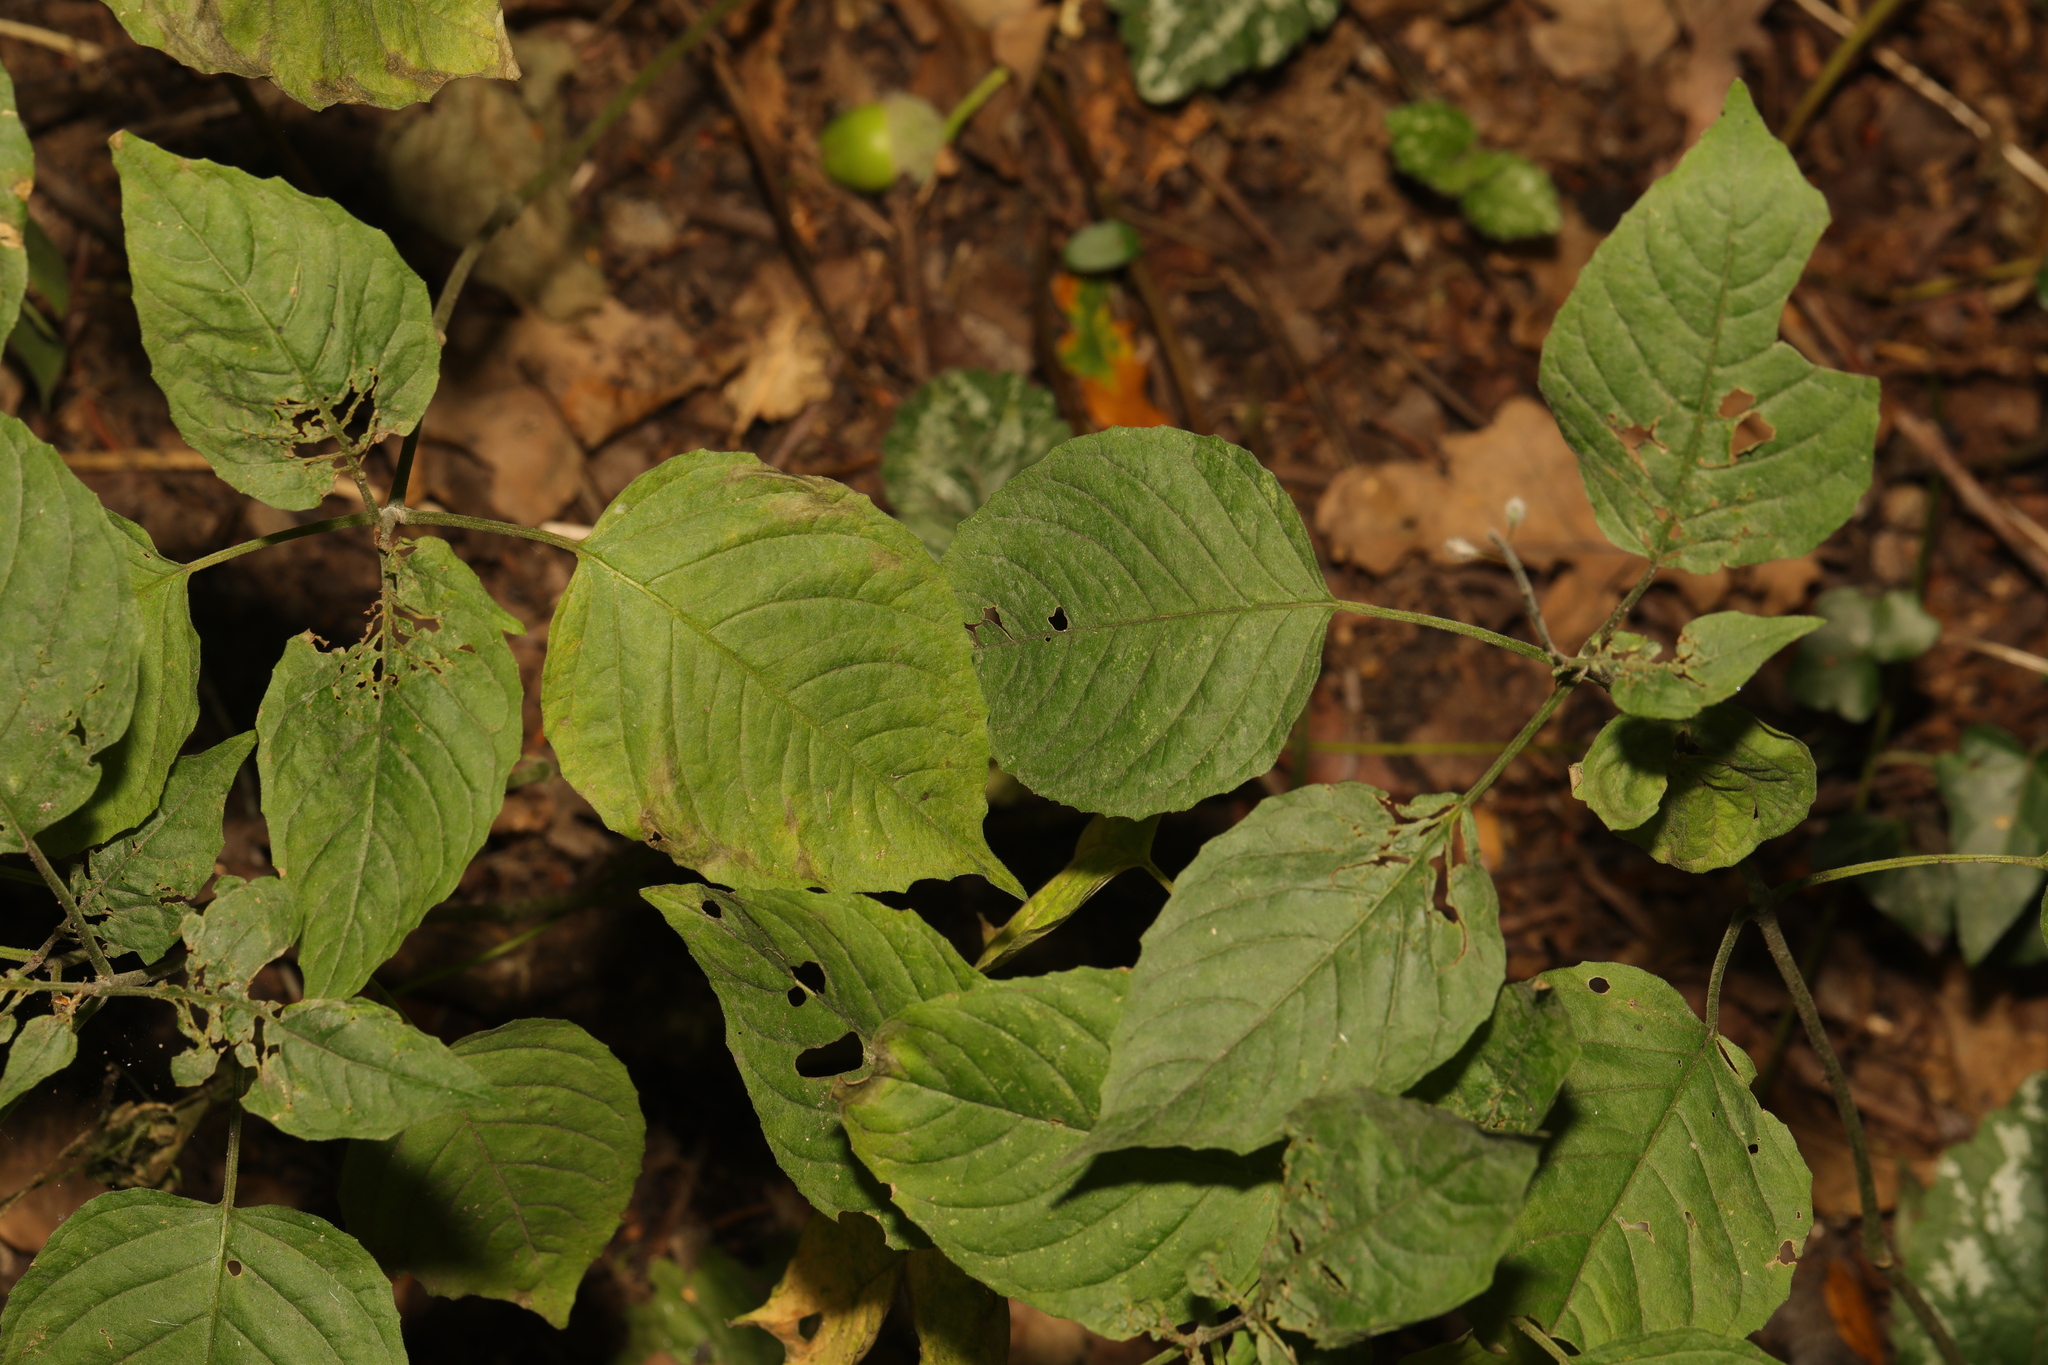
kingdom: Plantae
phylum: Tracheophyta
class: Magnoliopsida
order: Myrtales
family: Onagraceae
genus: Circaea
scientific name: Circaea lutetiana
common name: Enchanter's-nightshade
